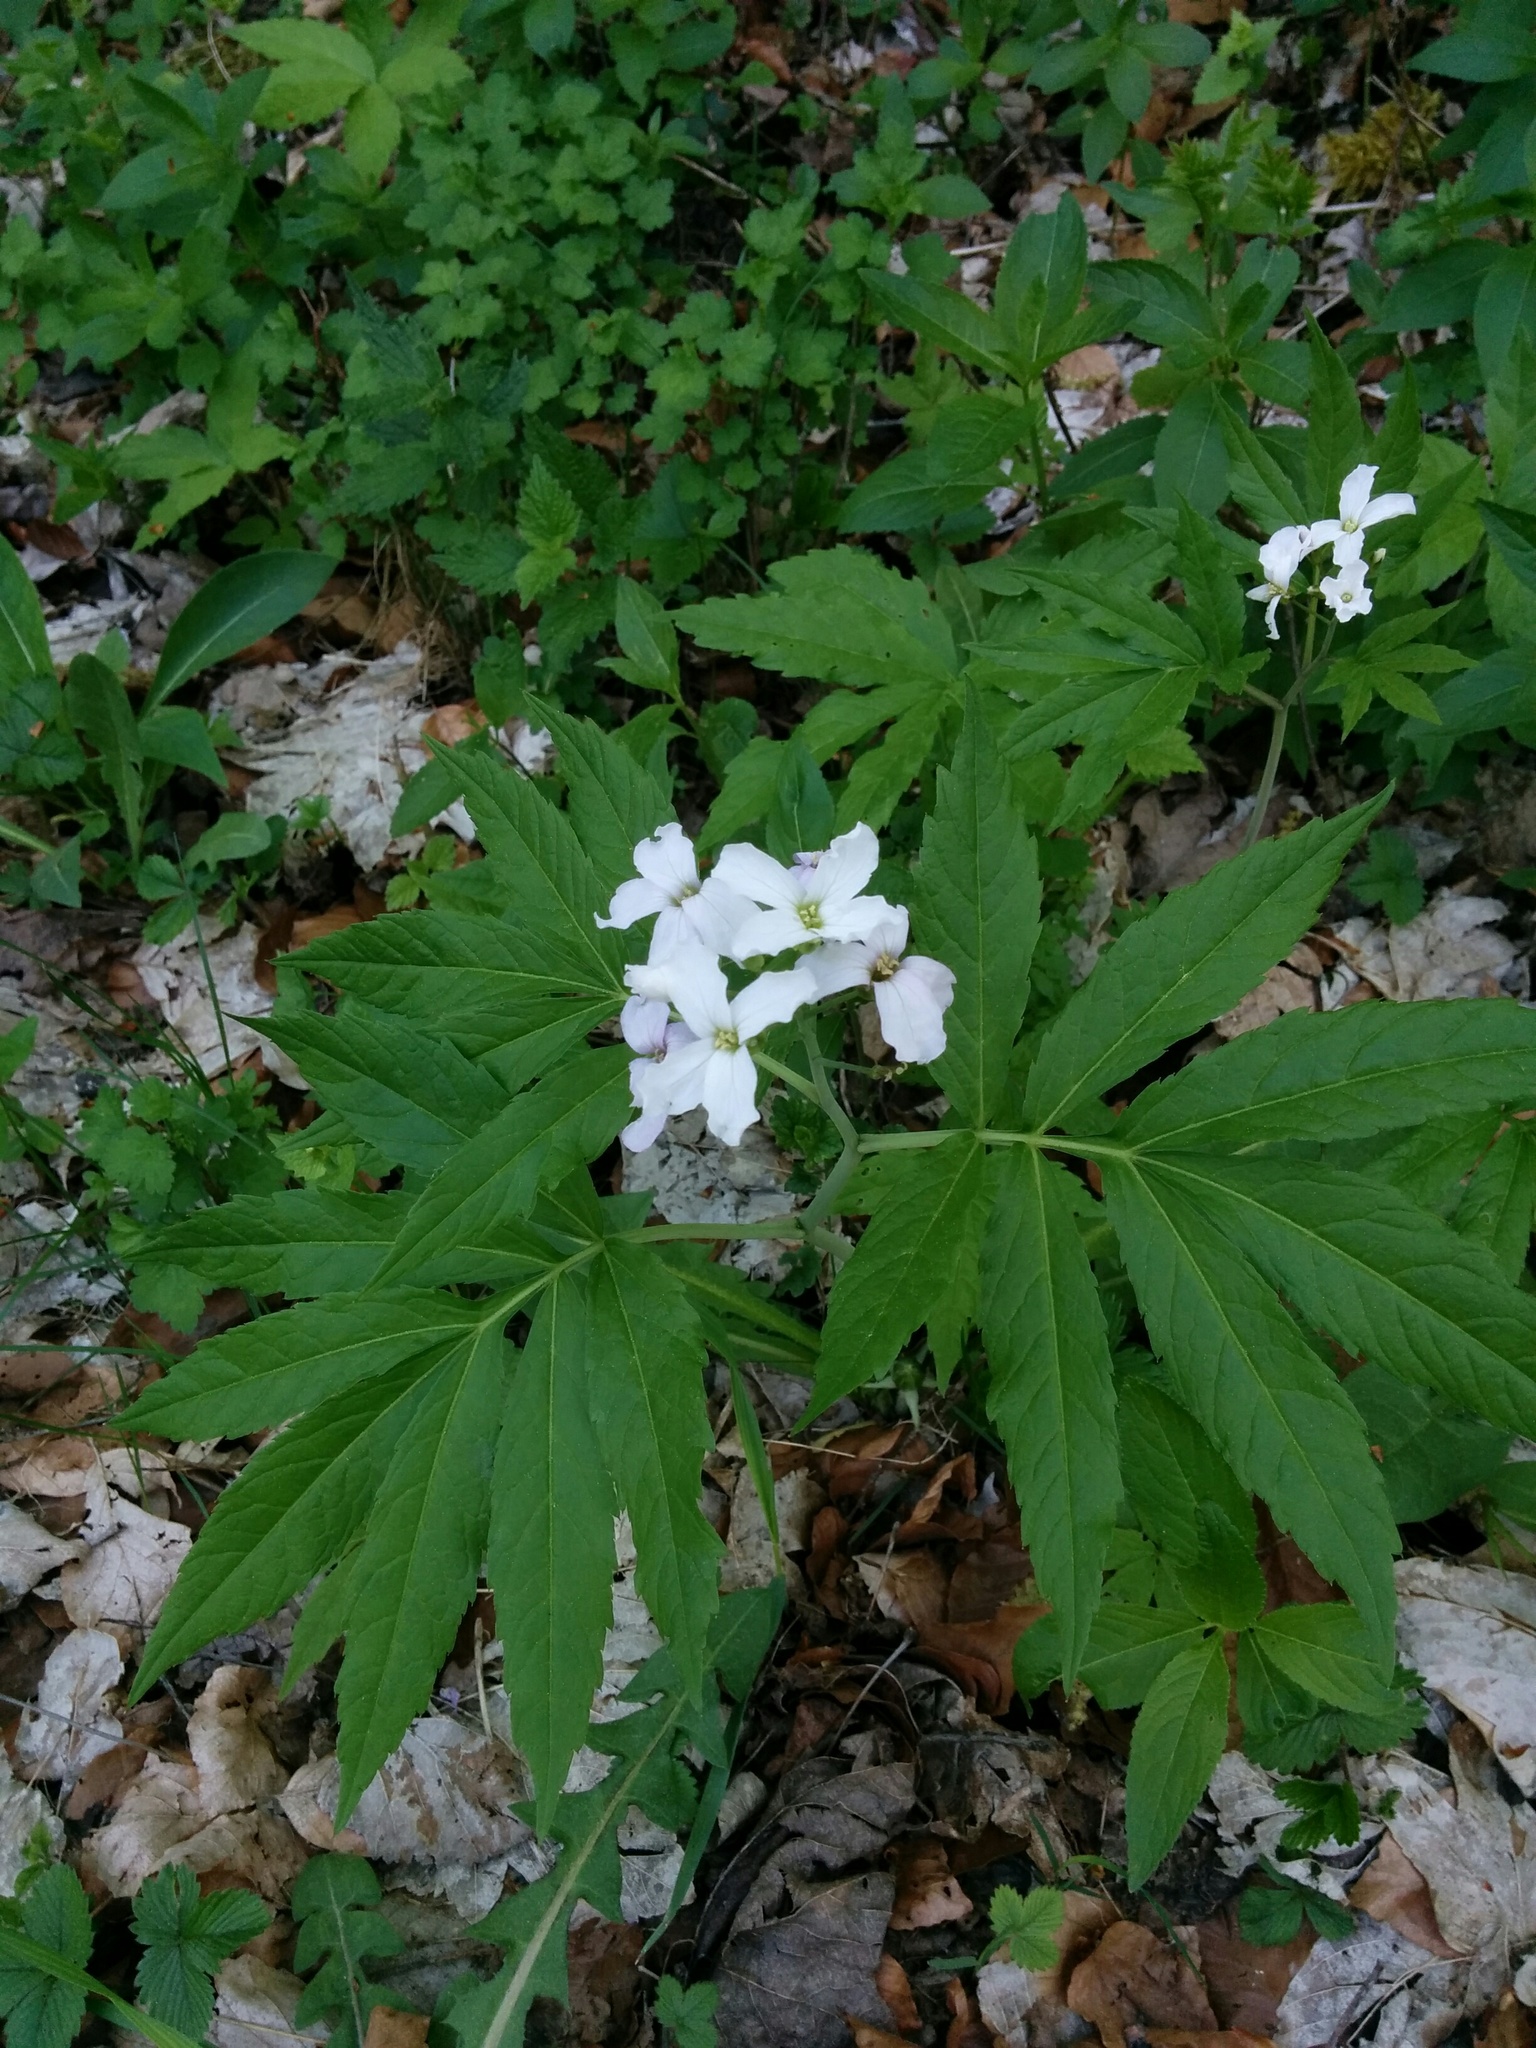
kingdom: Plantae
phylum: Tracheophyta
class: Magnoliopsida
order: Brassicales
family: Brassicaceae
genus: Cardamine
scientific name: Cardamine heptaphylla
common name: Pinnate coralroot
